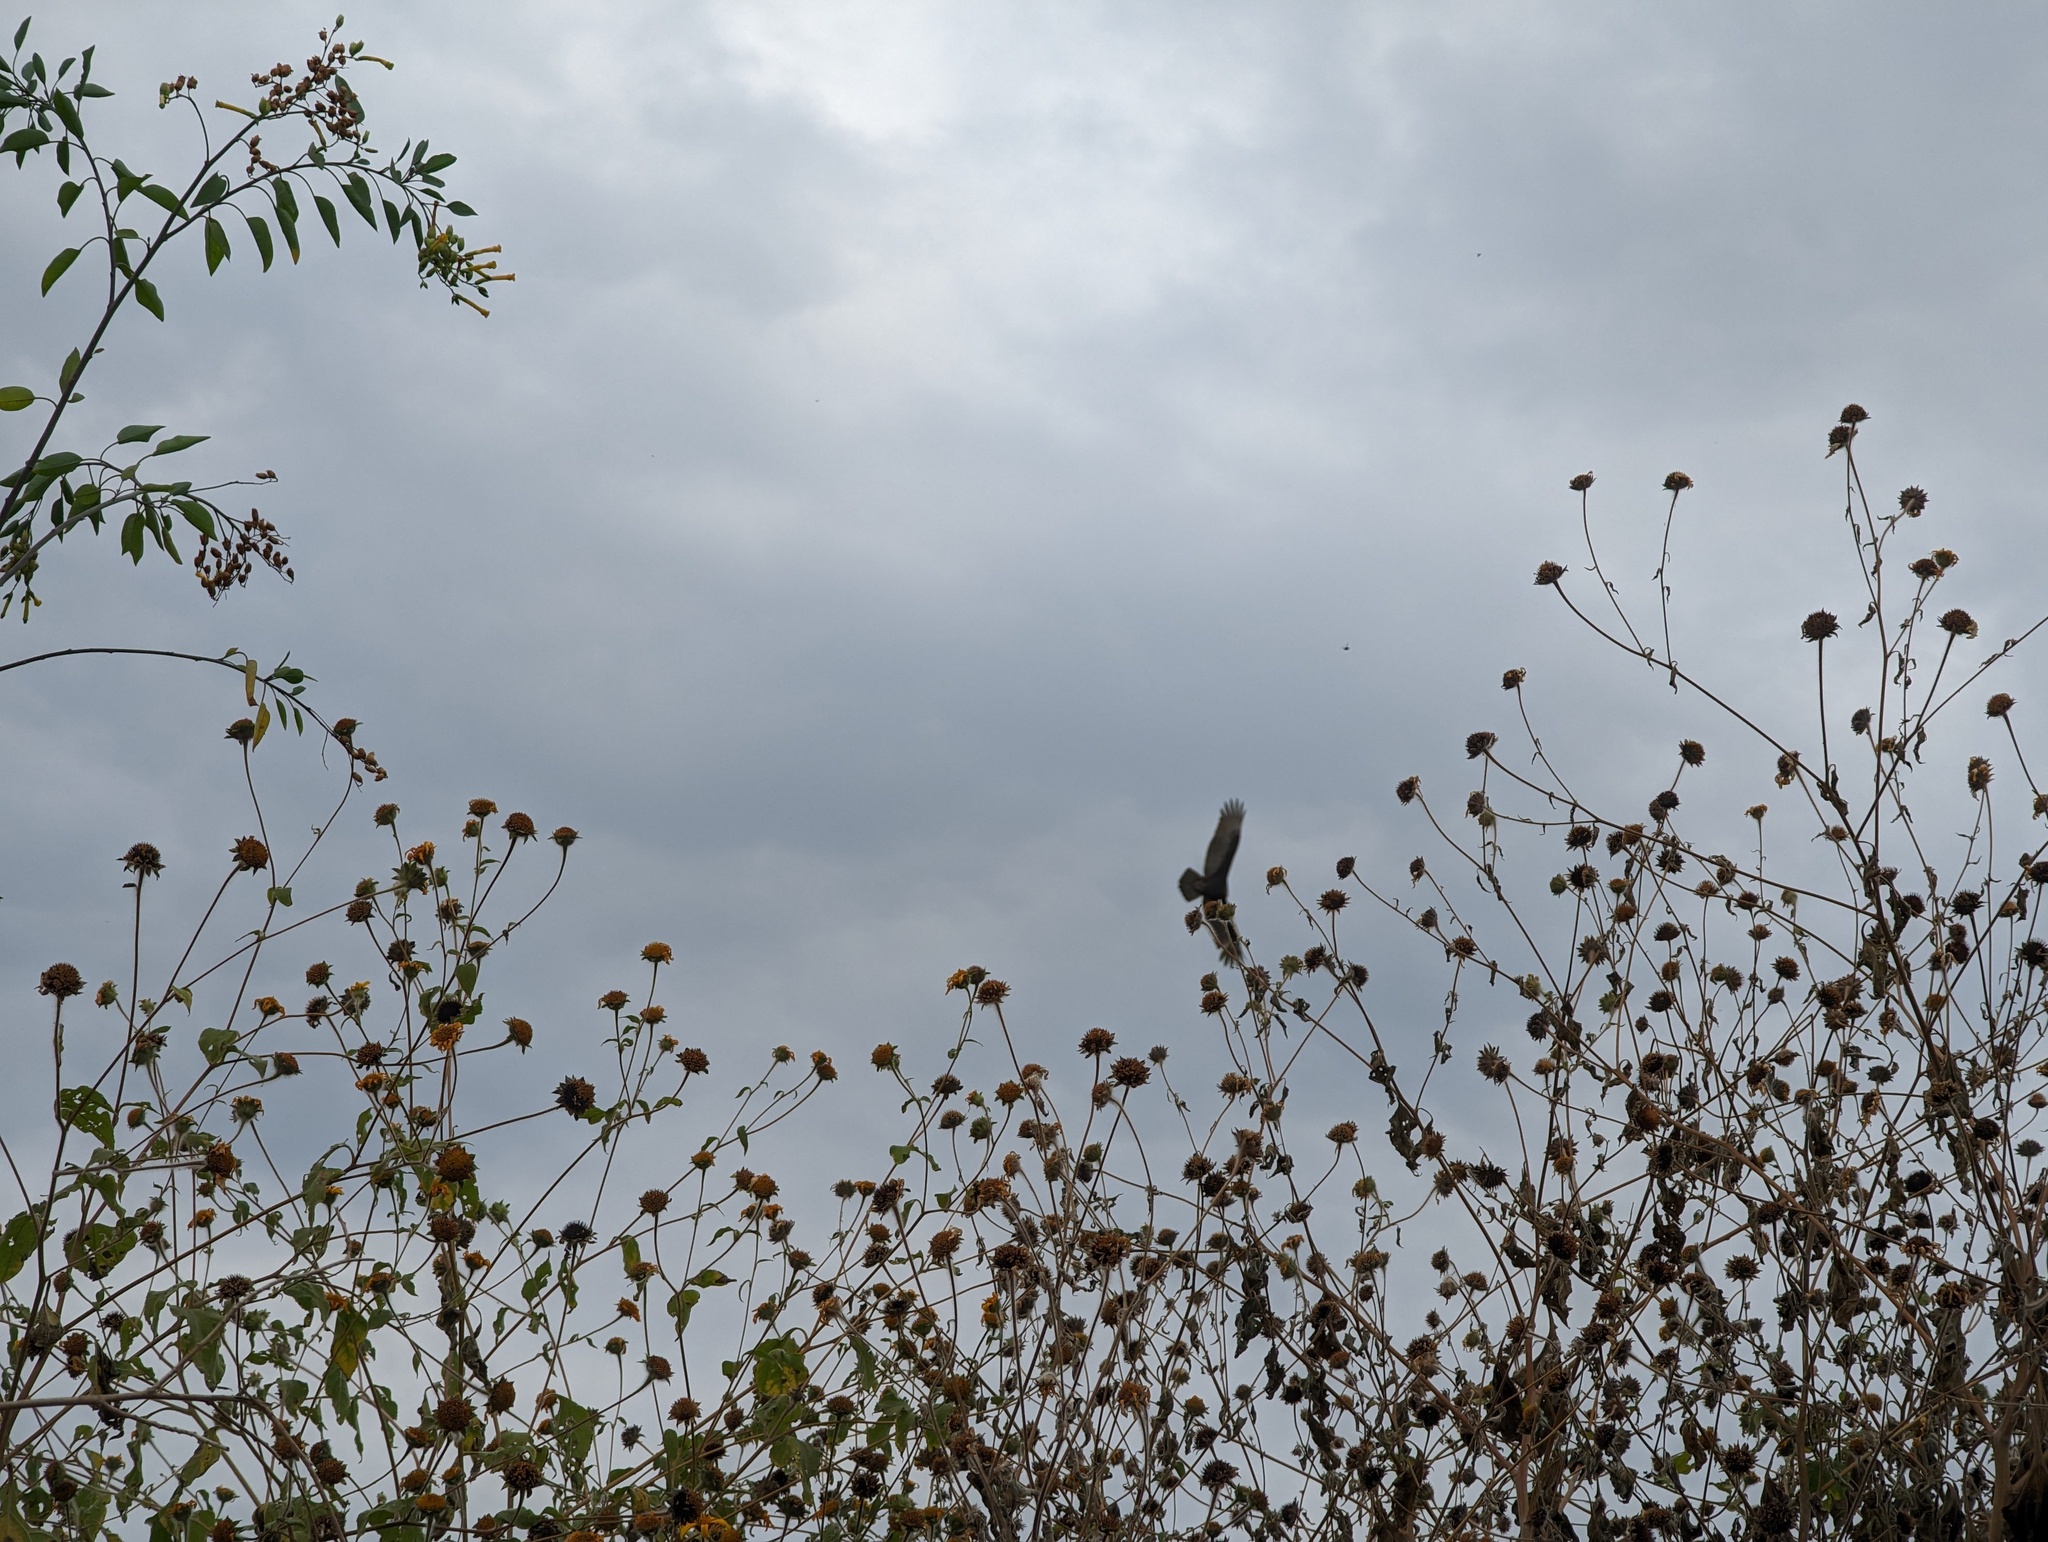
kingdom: Animalia
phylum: Chordata
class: Aves
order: Accipitriformes
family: Cathartidae
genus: Cathartes
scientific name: Cathartes aura
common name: Turkey vulture
